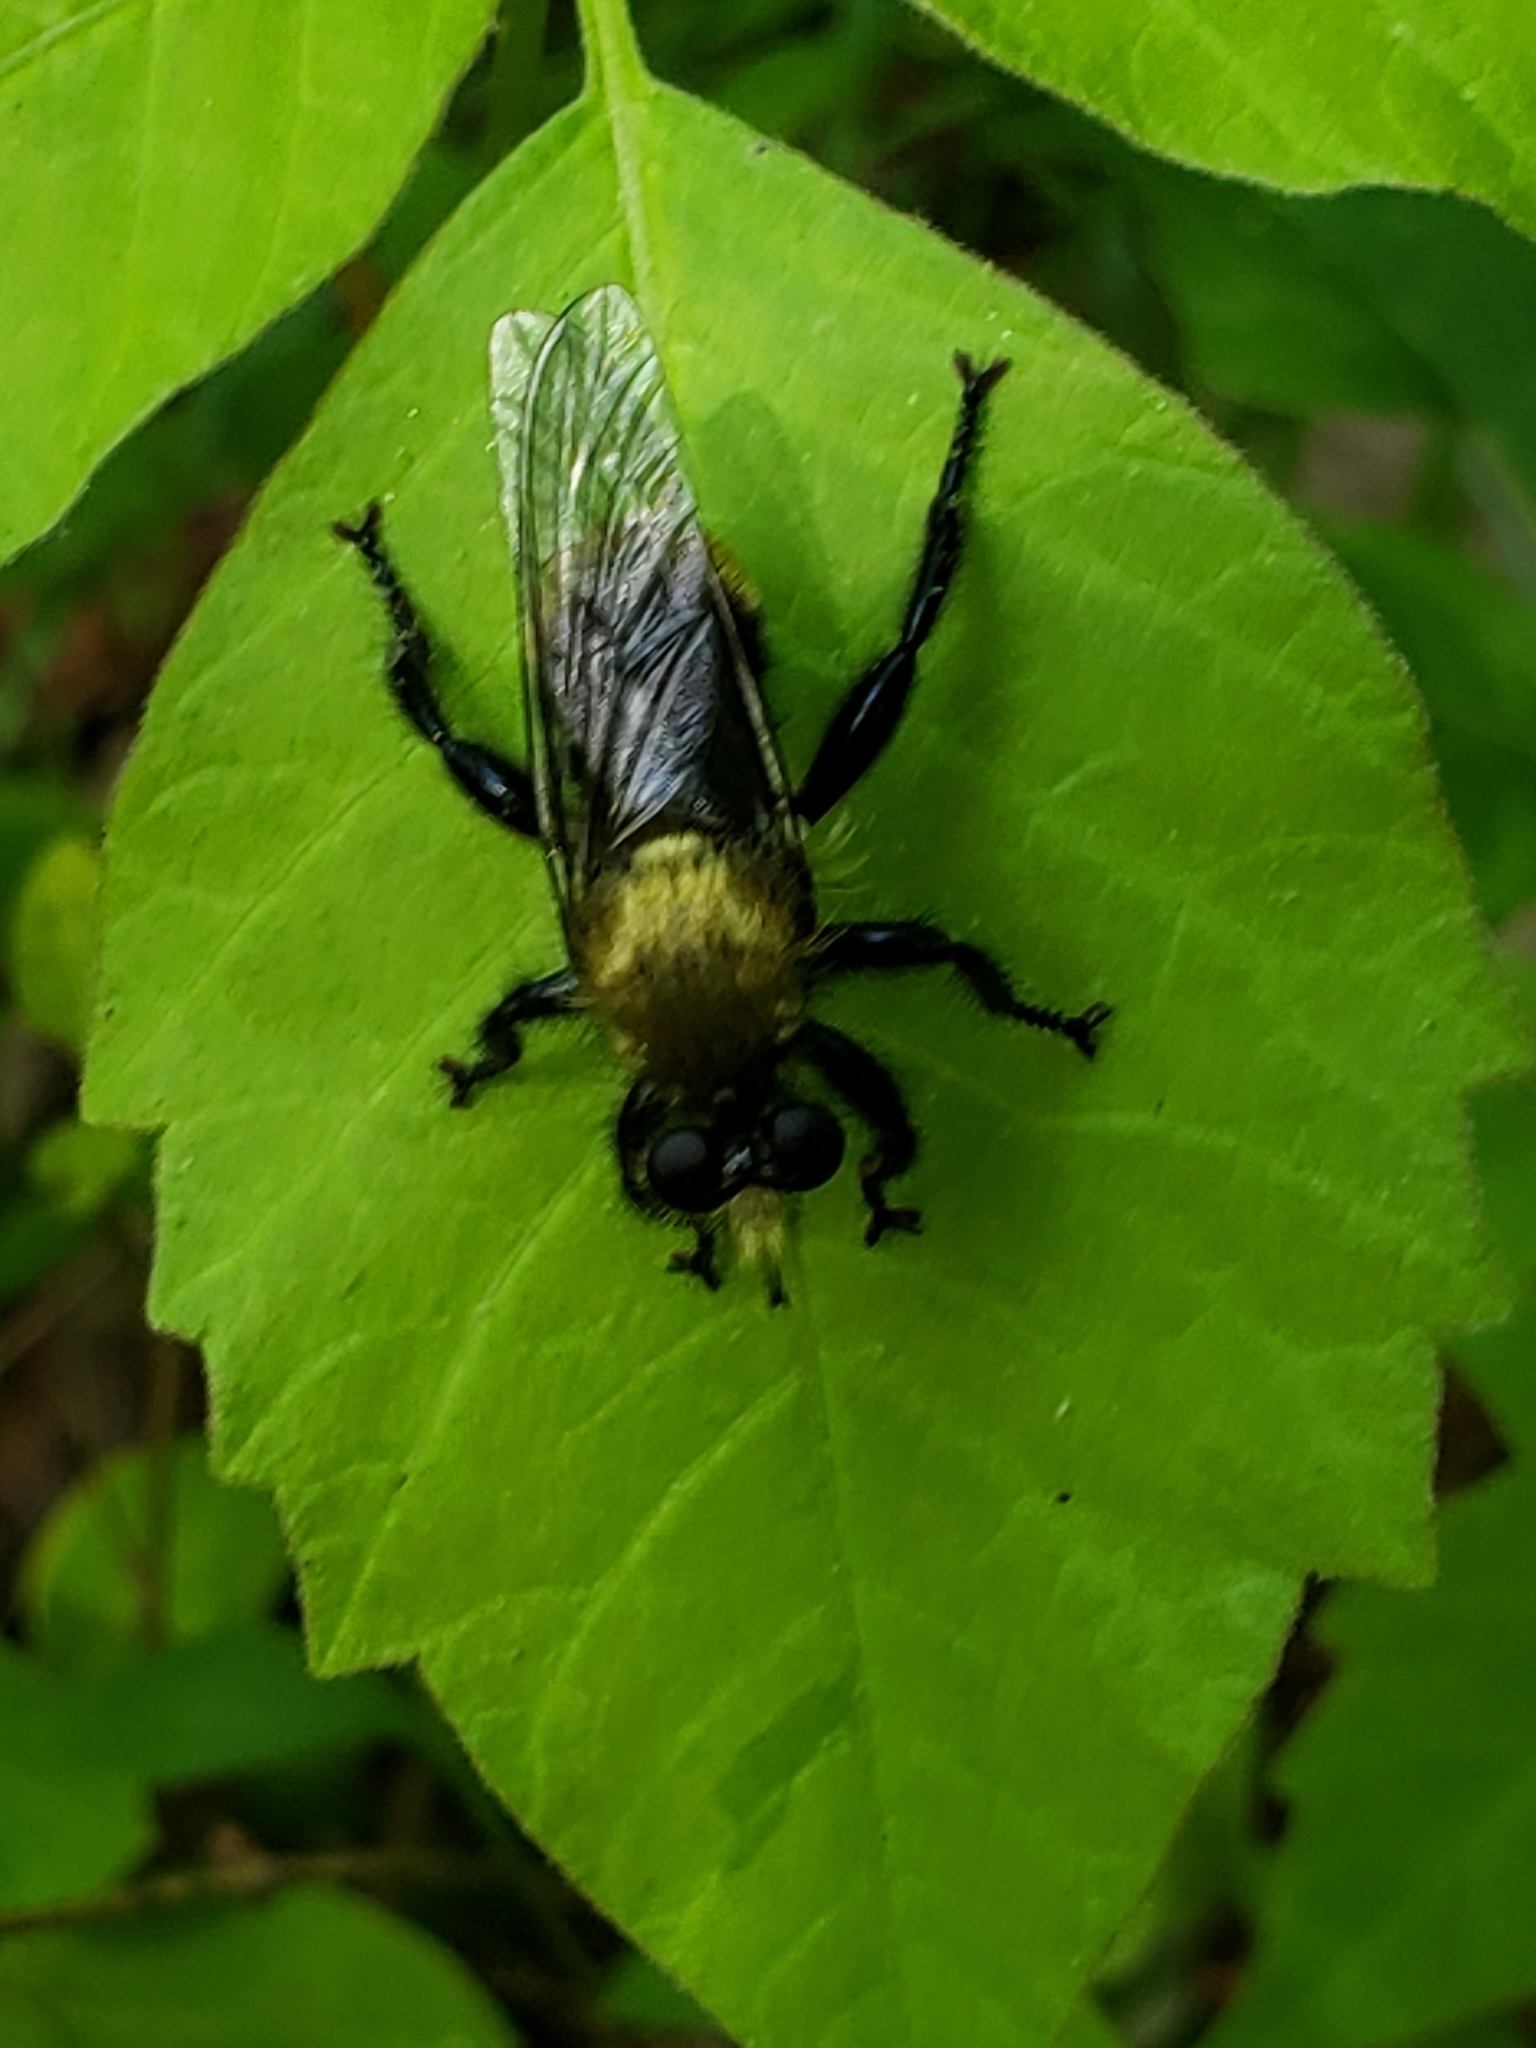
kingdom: Animalia
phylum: Arthropoda
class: Insecta
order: Diptera
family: Asilidae
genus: Laphria
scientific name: Laphria divisor
